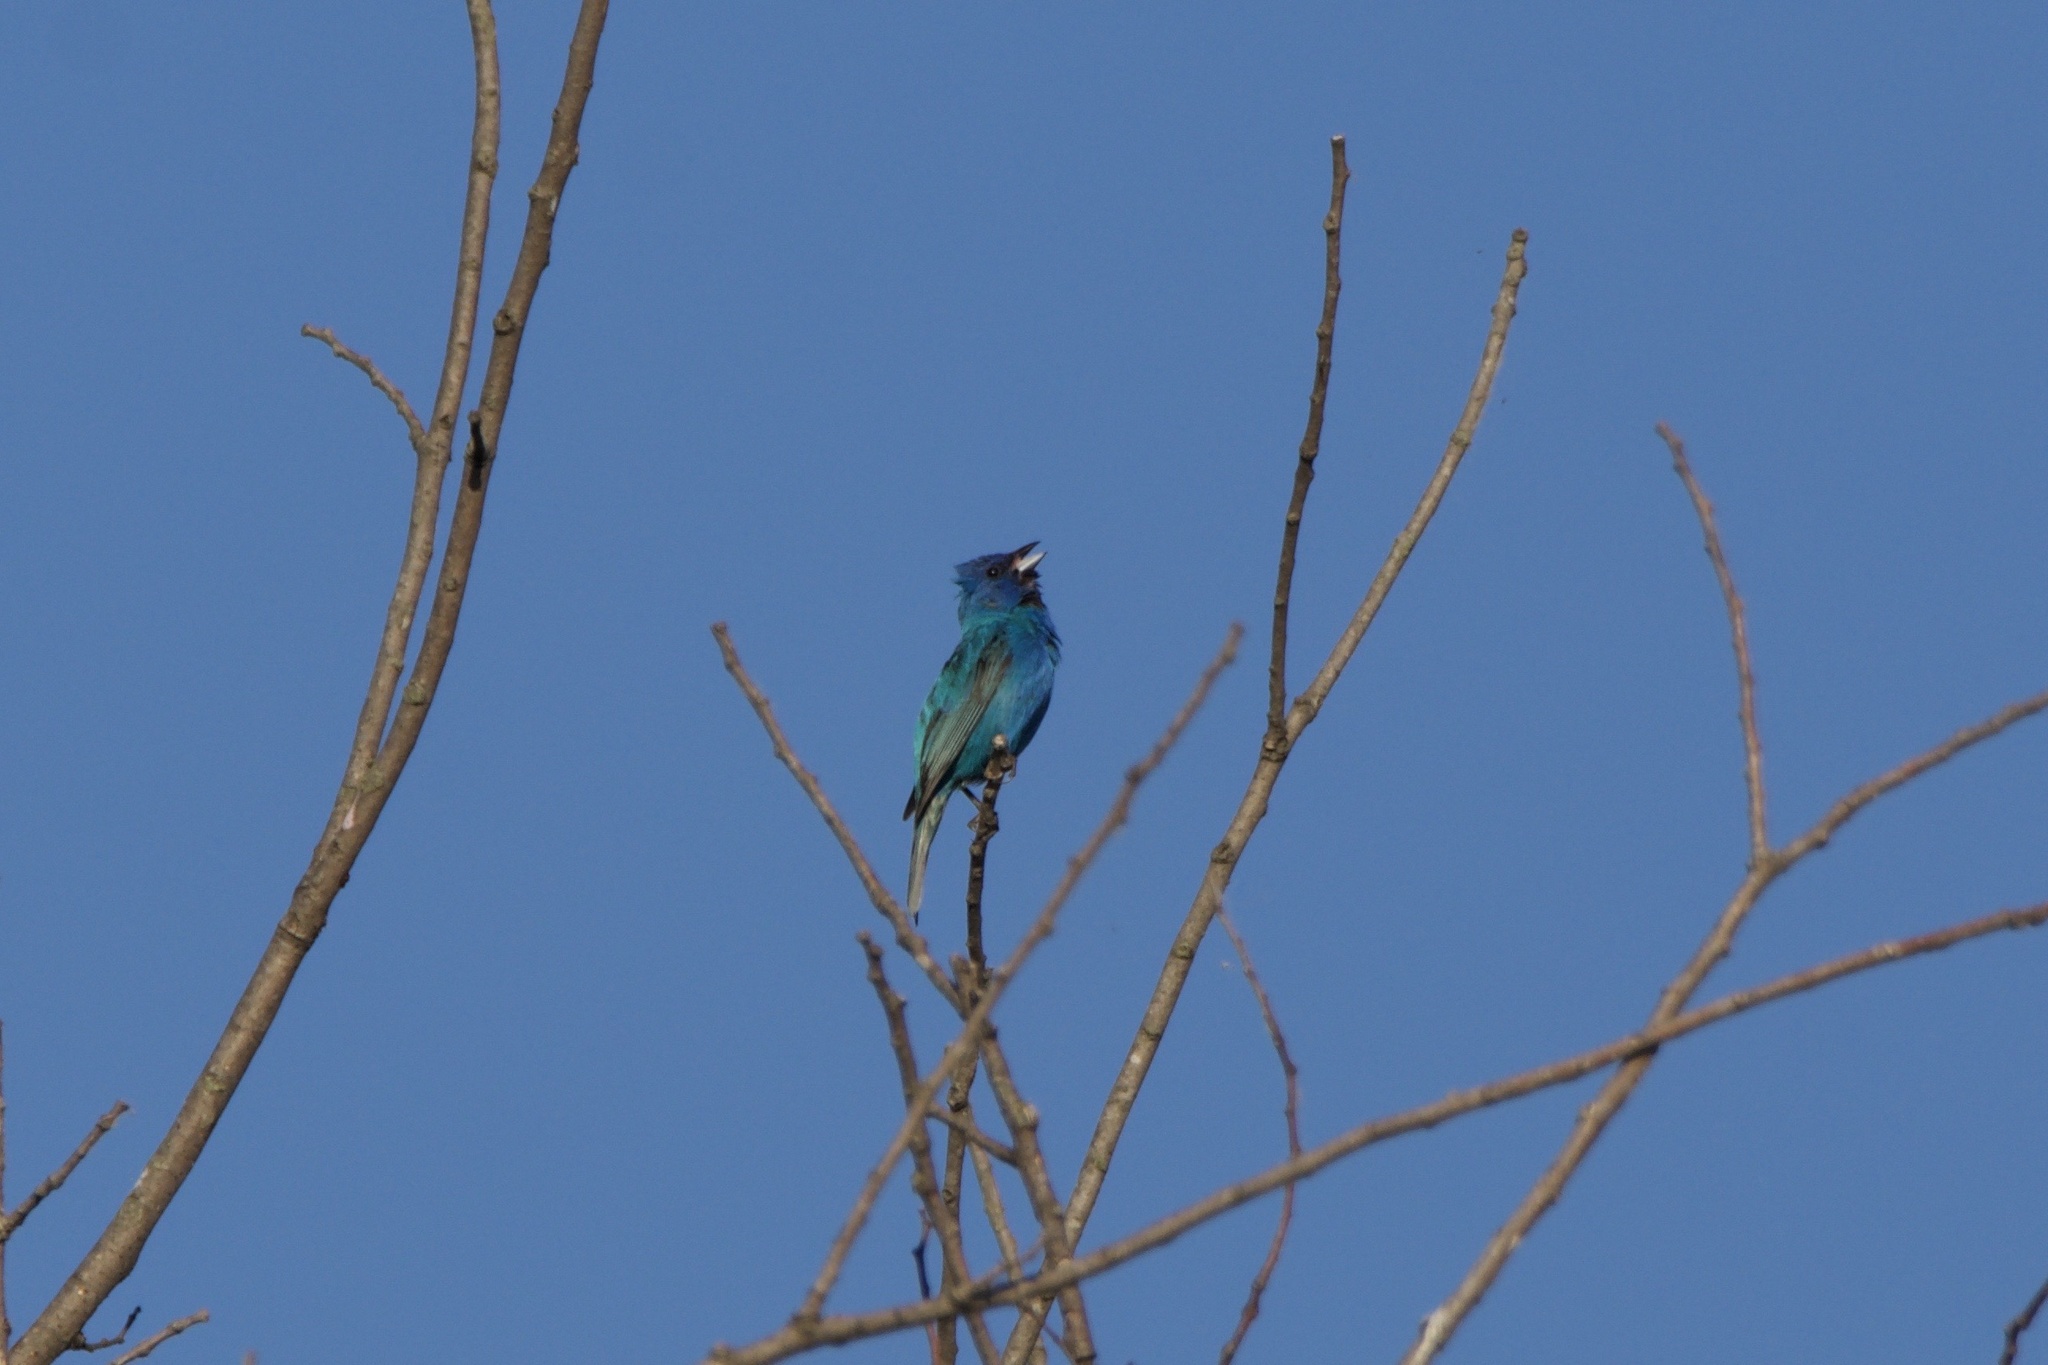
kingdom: Animalia
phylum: Chordata
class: Aves
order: Passeriformes
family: Cardinalidae
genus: Passerina
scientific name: Passerina cyanea
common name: Indigo bunting
